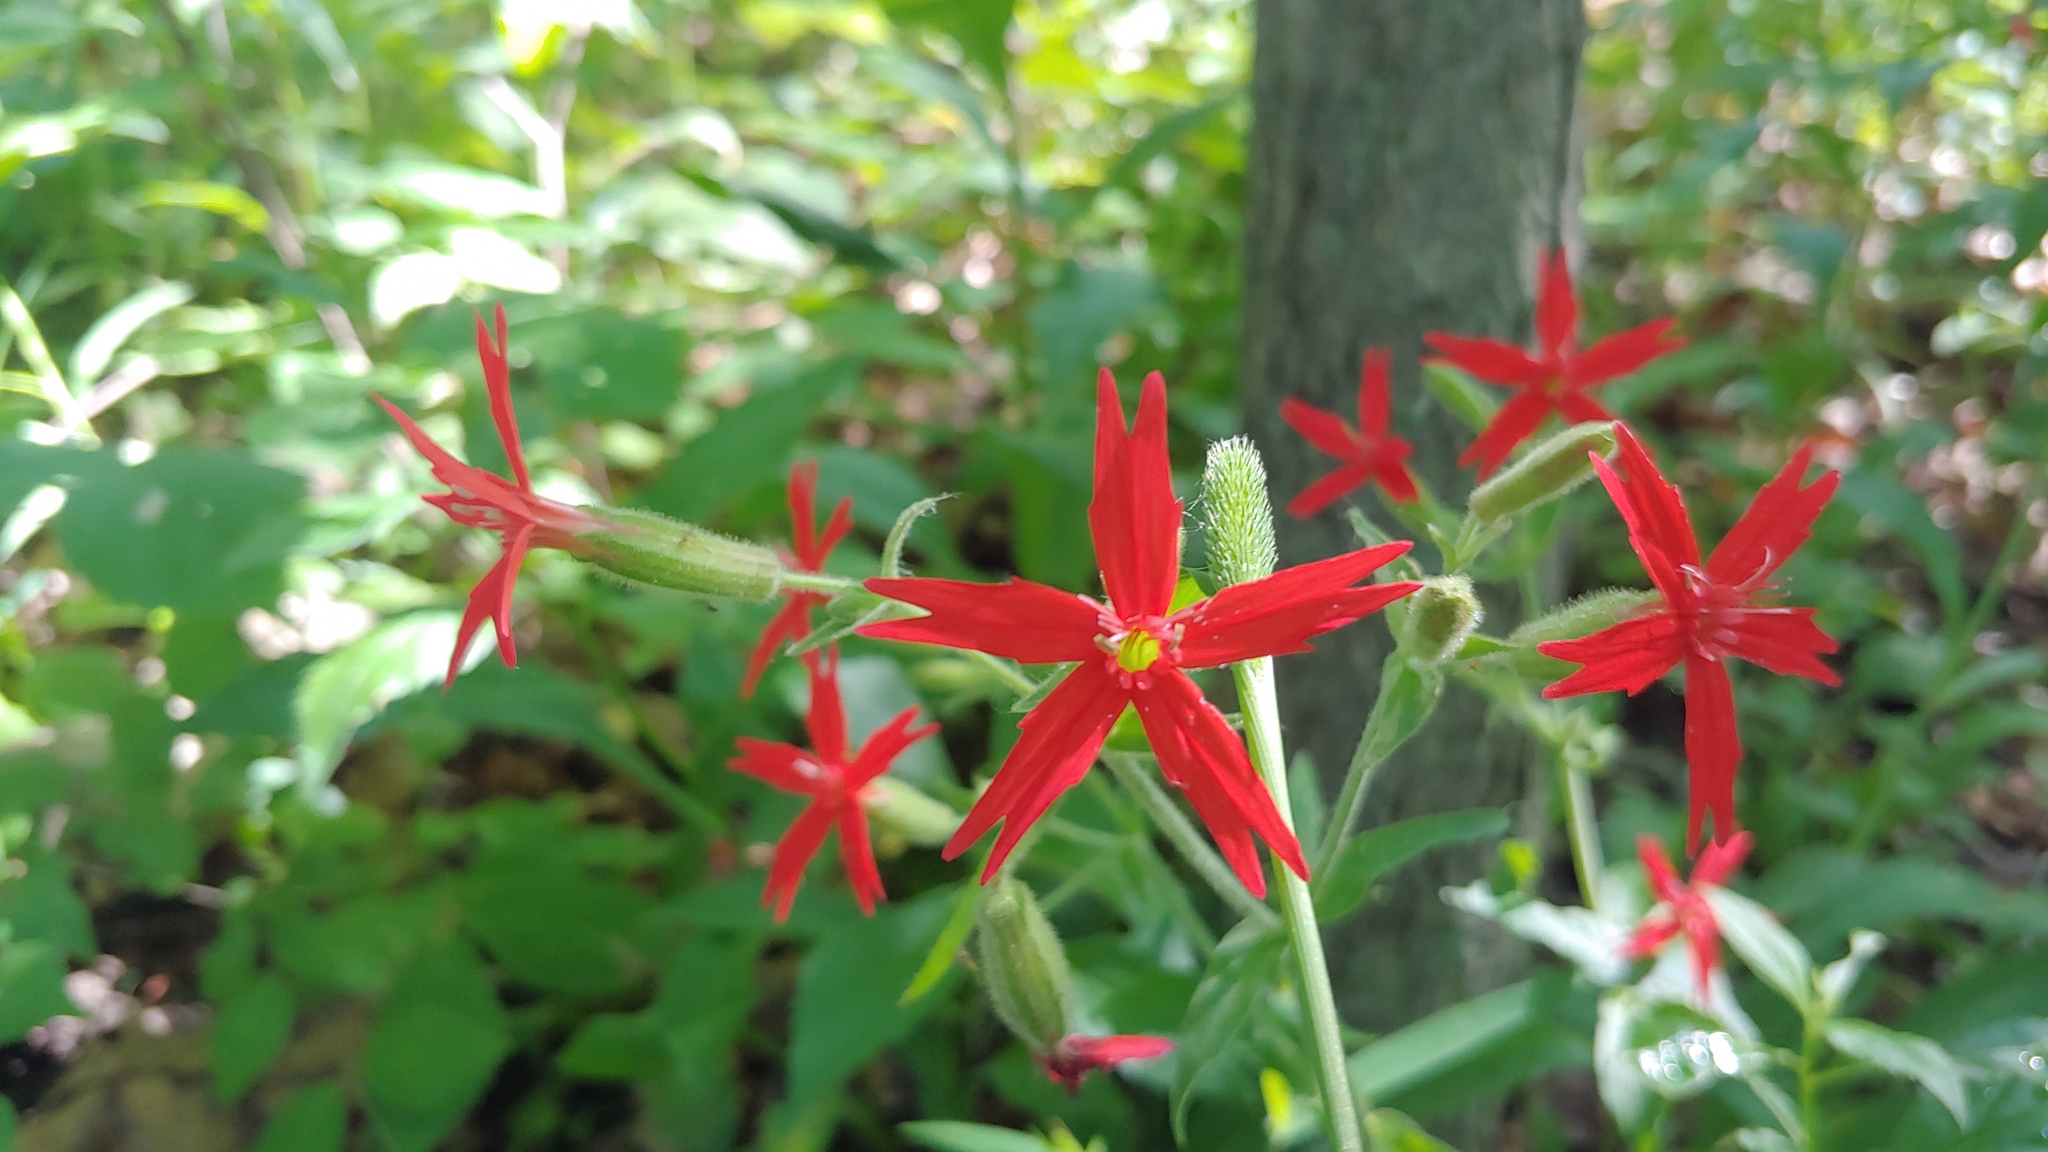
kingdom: Plantae
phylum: Tracheophyta
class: Magnoliopsida
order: Caryophyllales
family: Caryophyllaceae
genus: Silene
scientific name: Silene virginica
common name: Fire-pink
